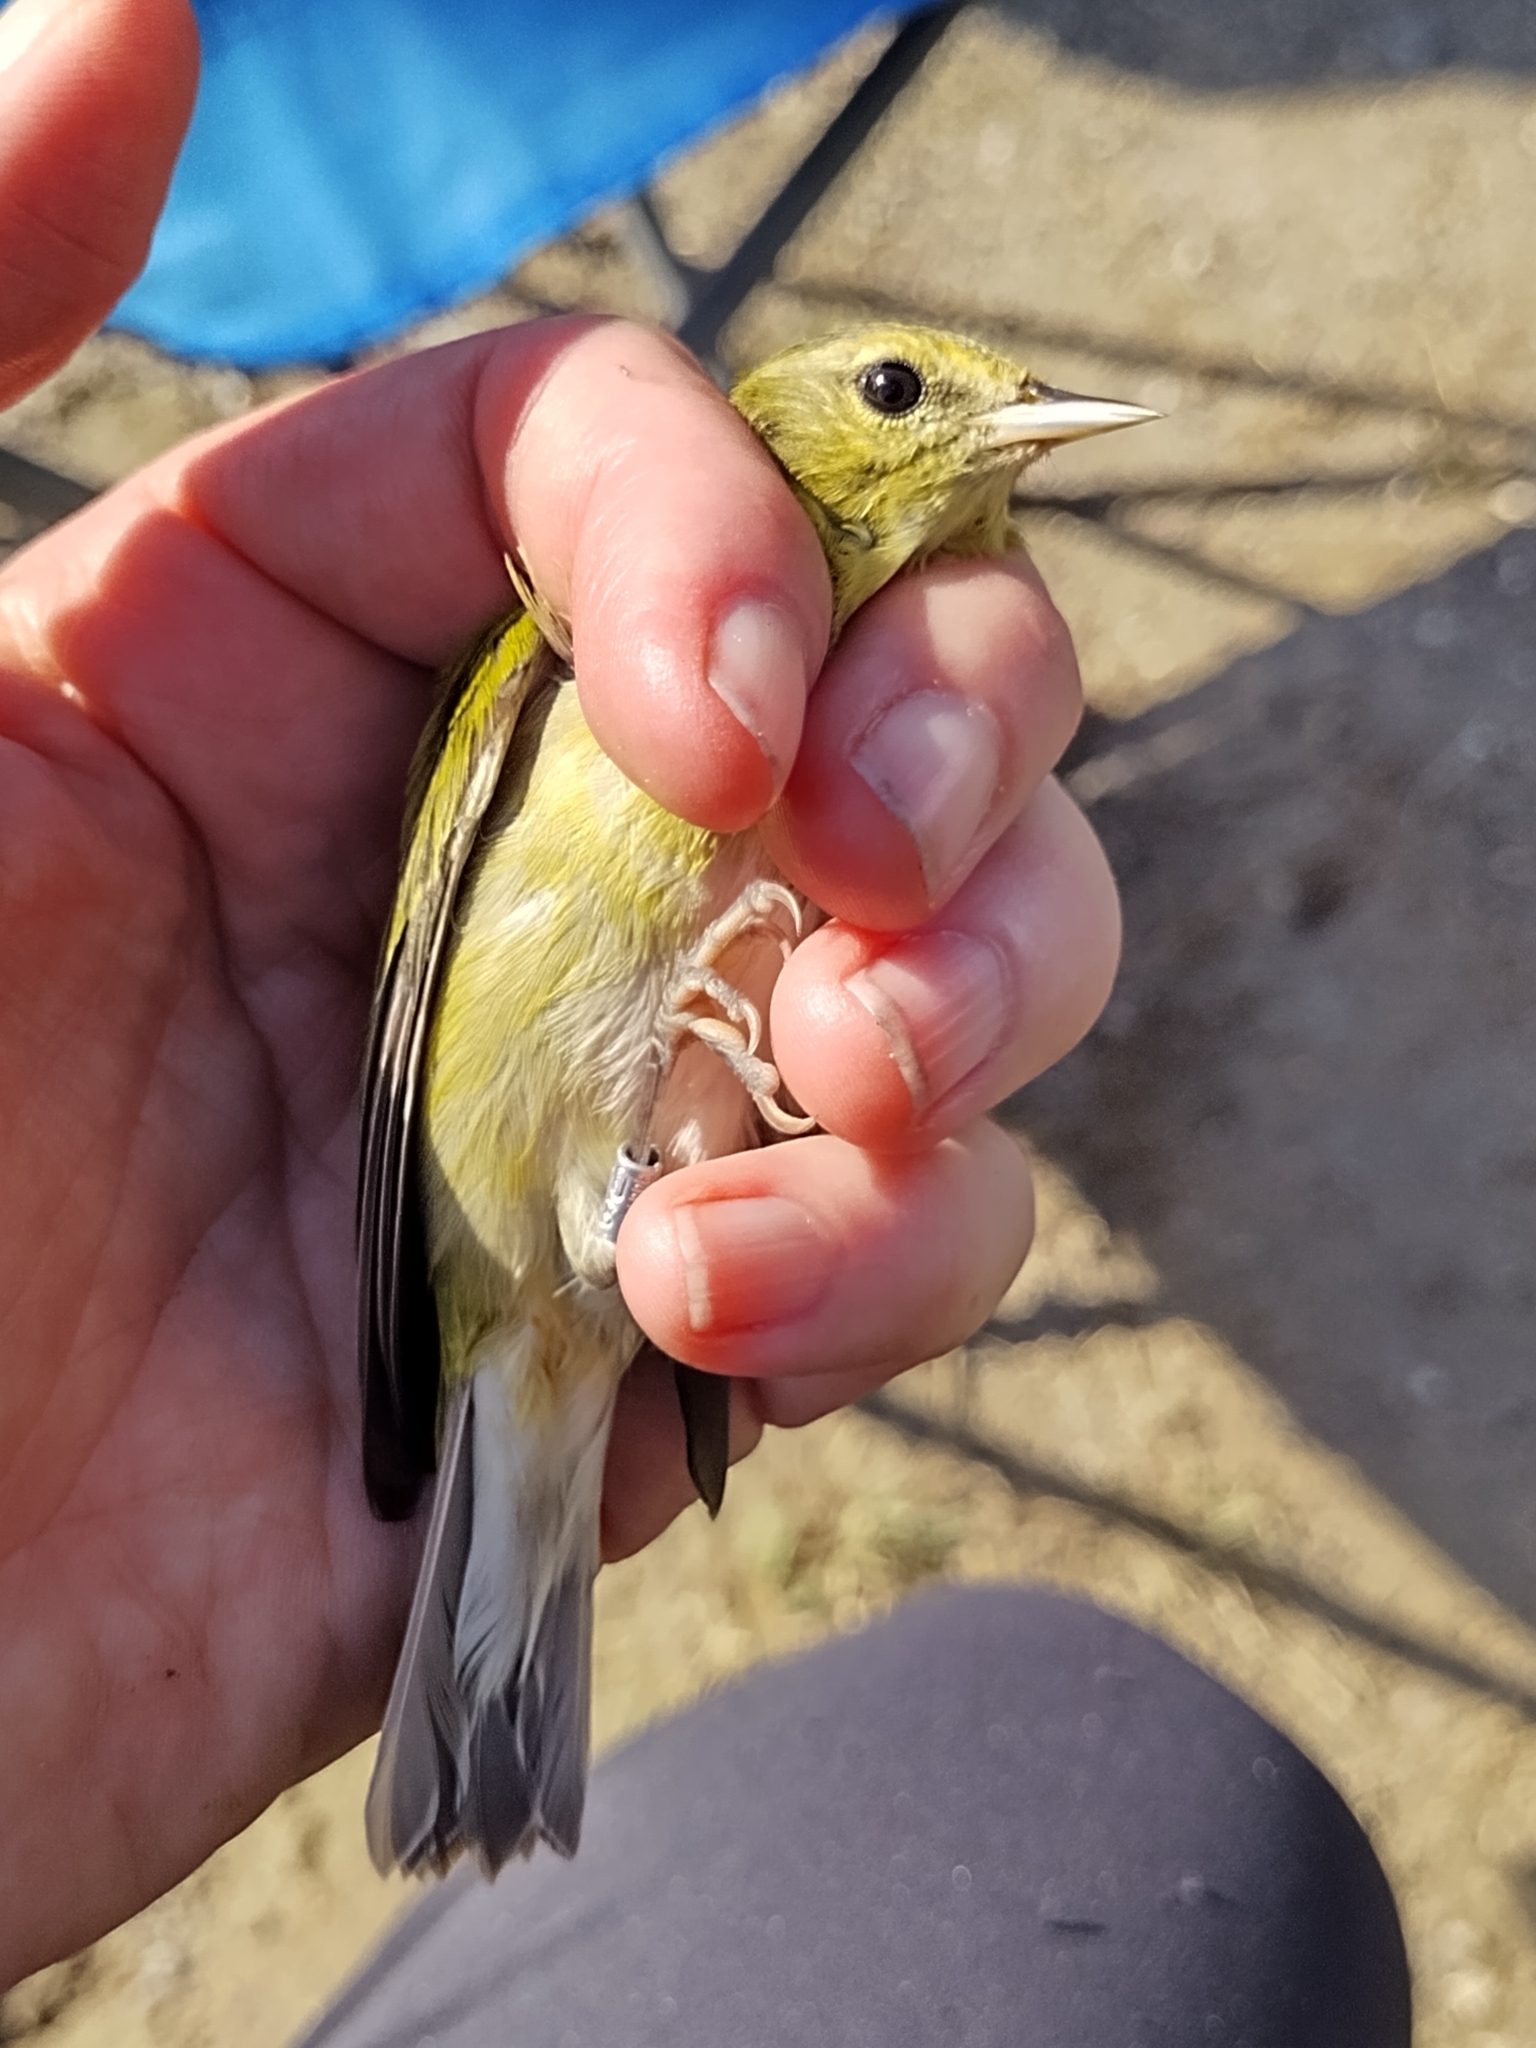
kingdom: Animalia
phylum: Chordata
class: Aves
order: Passeriformes
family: Parulidae
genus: Leiothlypis
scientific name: Leiothlypis peregrina
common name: Tennessee warbler
